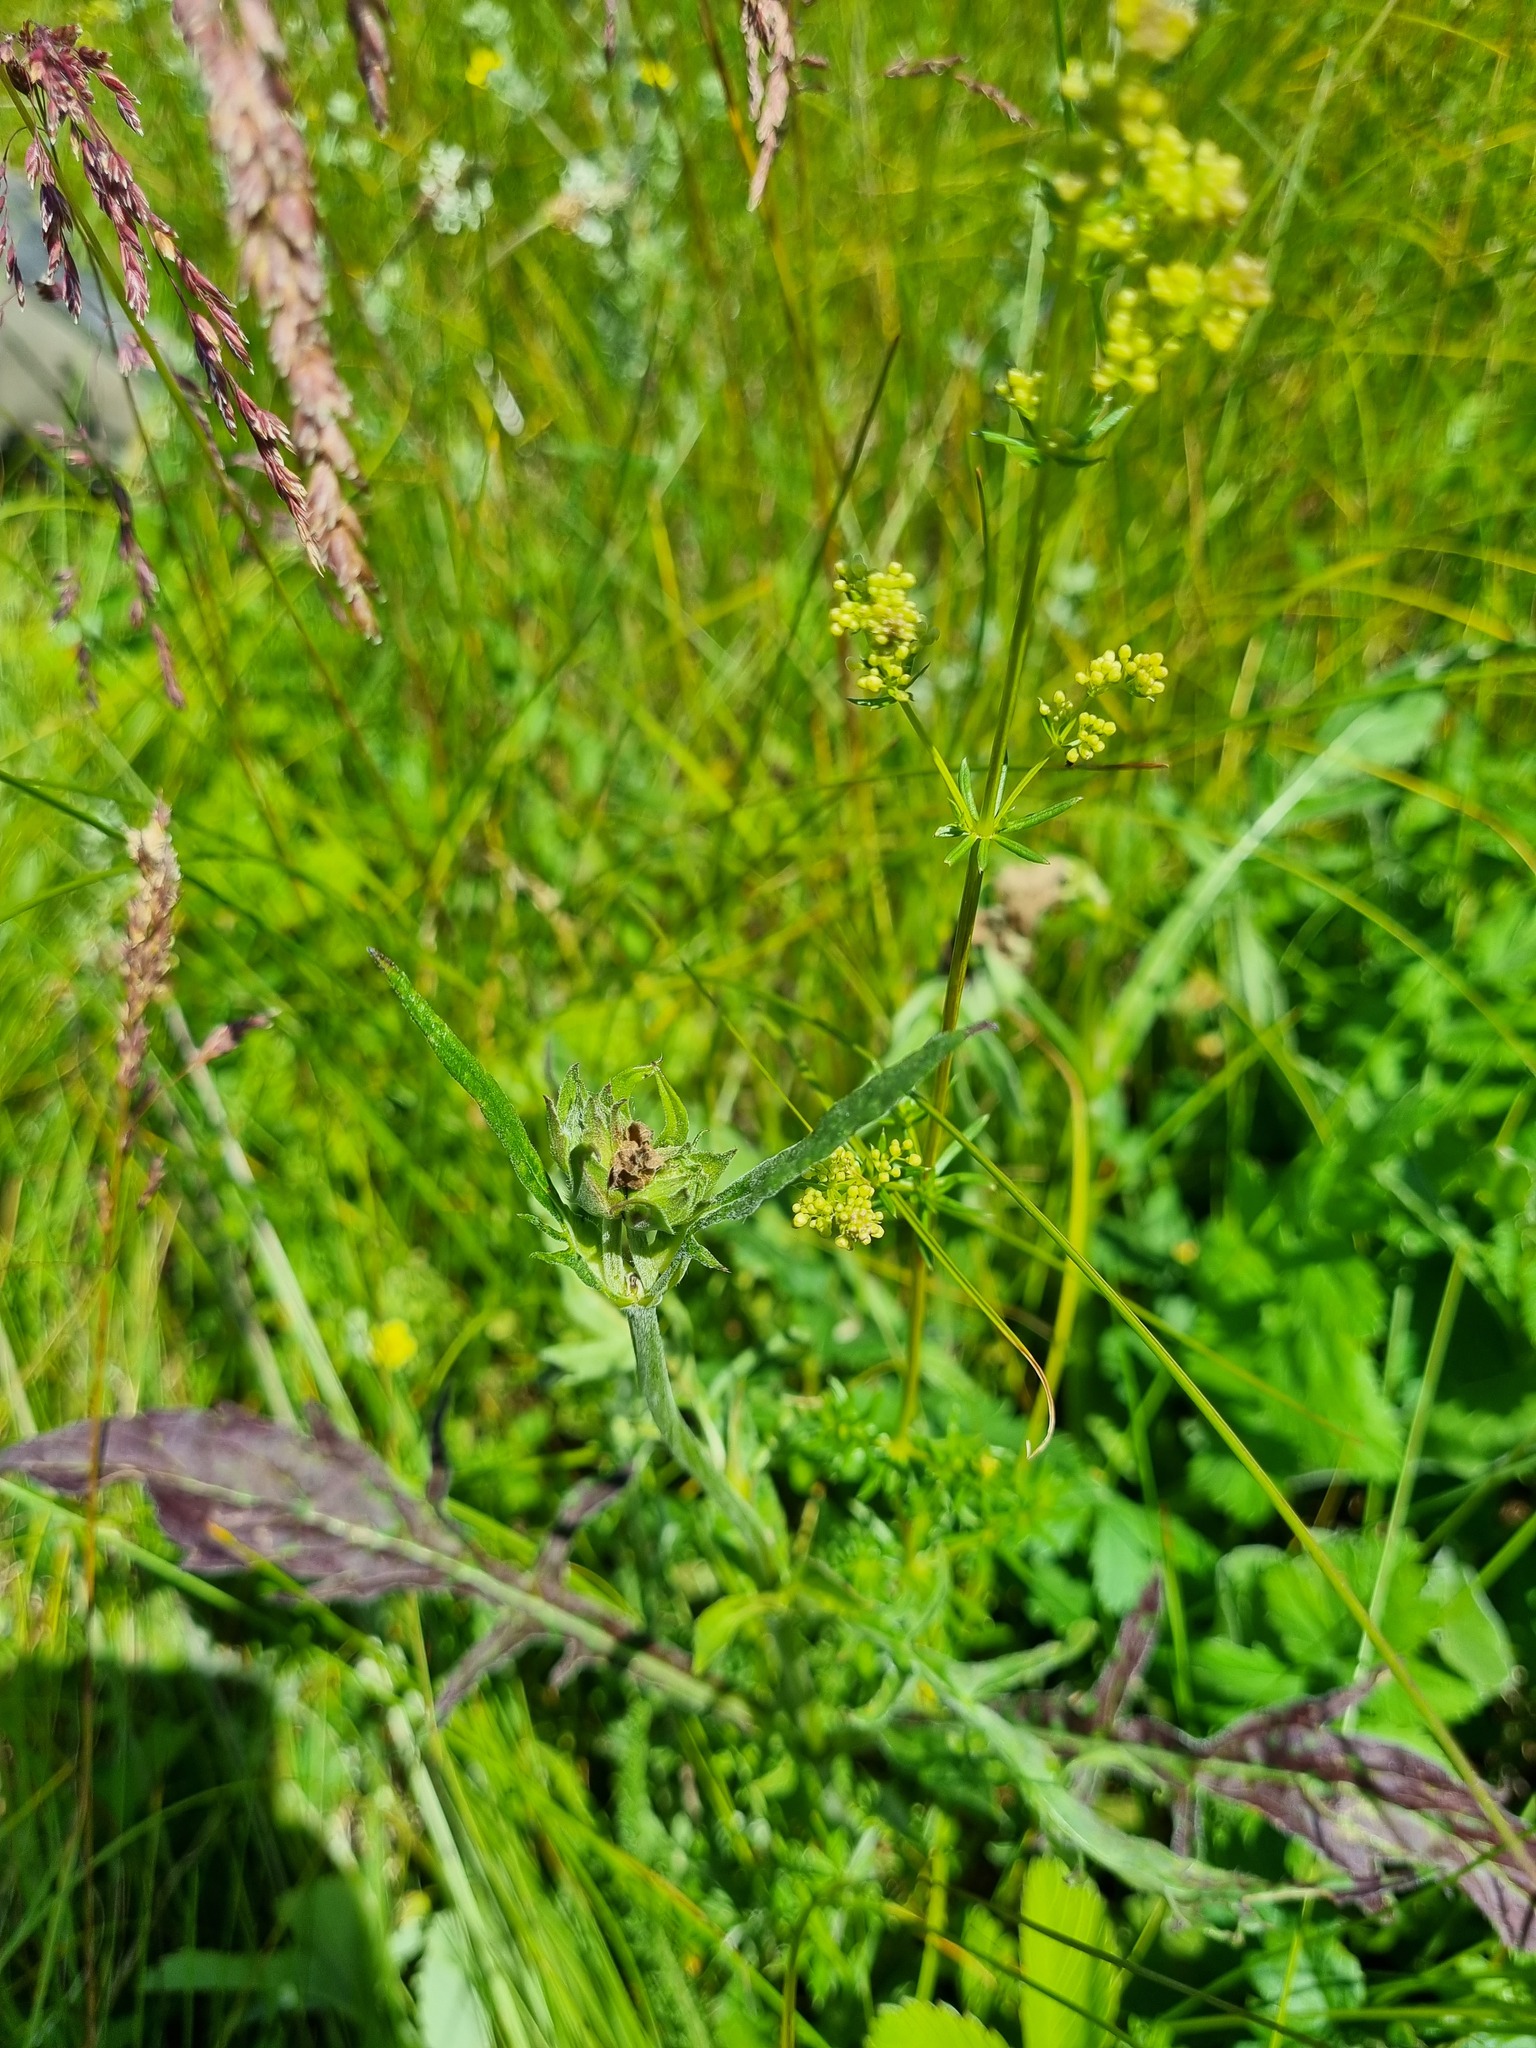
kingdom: Plantae
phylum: Tracheophyta
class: Magnoliopsida
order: Dipsacales
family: Caprifoliaceae
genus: Knautia
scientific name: Knautia arvensis
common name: Field scabiosa
